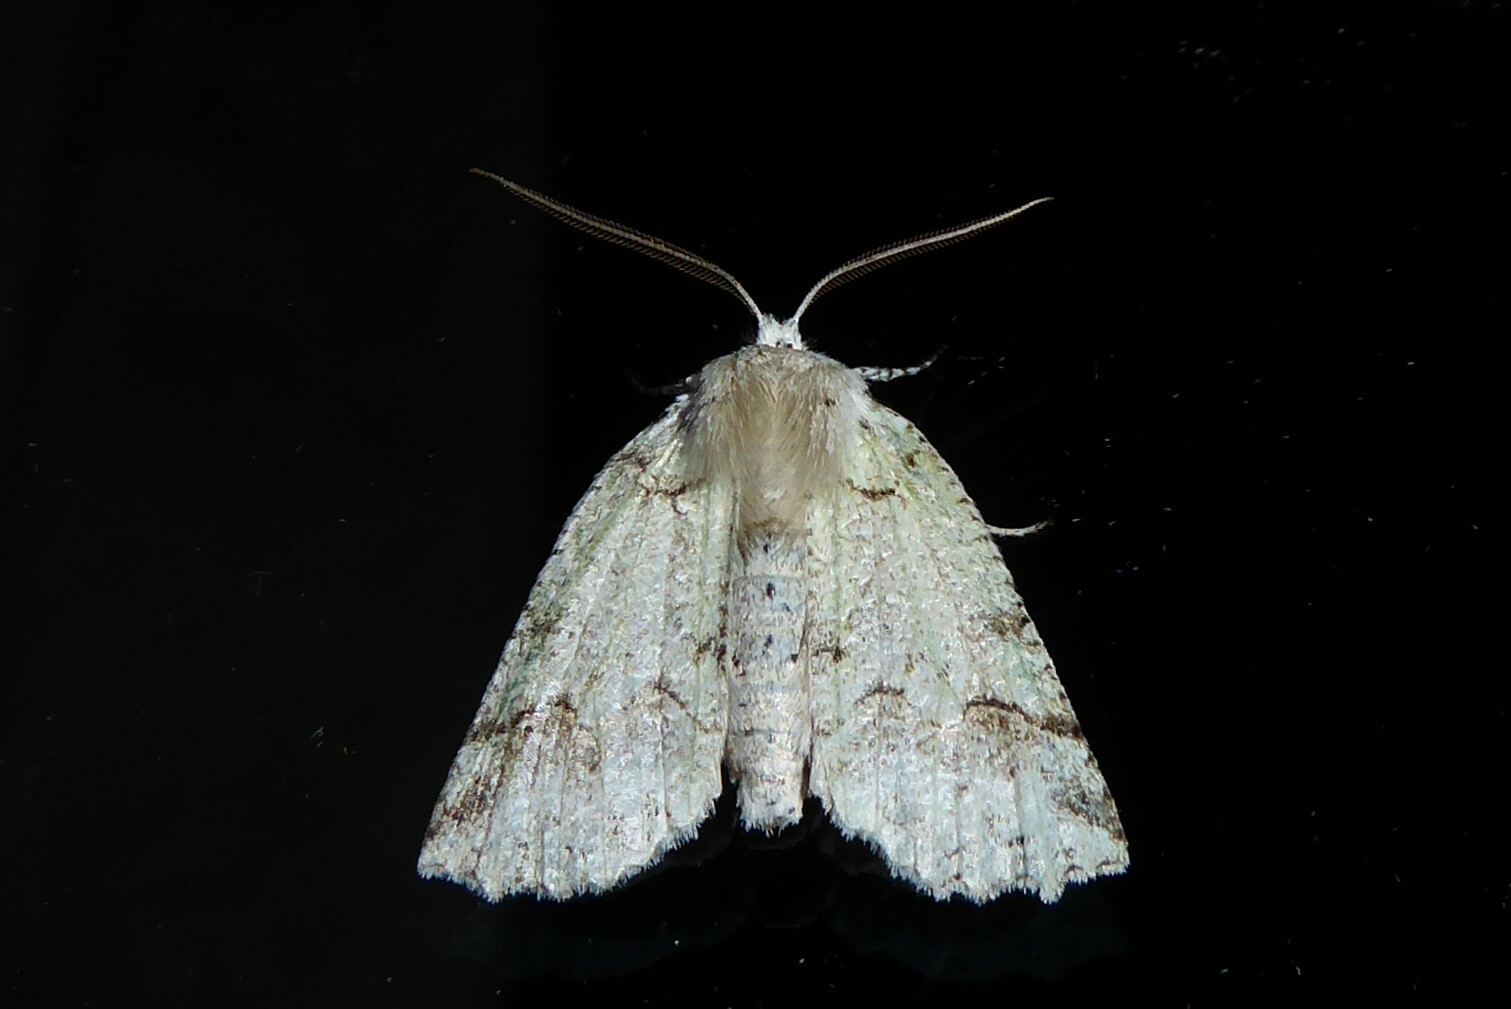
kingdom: Animalia
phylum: Arthropoda
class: Insecta
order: Lepidoptera
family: Geometridae
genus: Declana
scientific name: Declana floccosa
